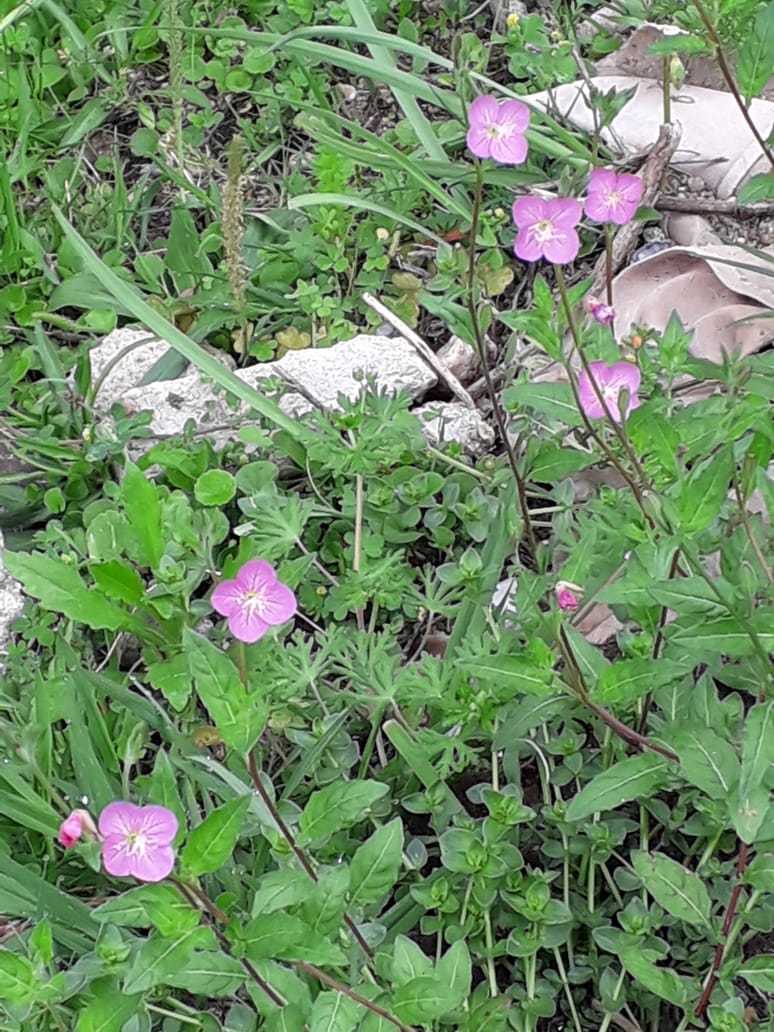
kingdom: Plantae
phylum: Tracheophyta
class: Magnoliopsida
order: Myrtales
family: Onagraceae
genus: Oenothera
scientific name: Oenothera rosea
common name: Rosy evening-primrose
